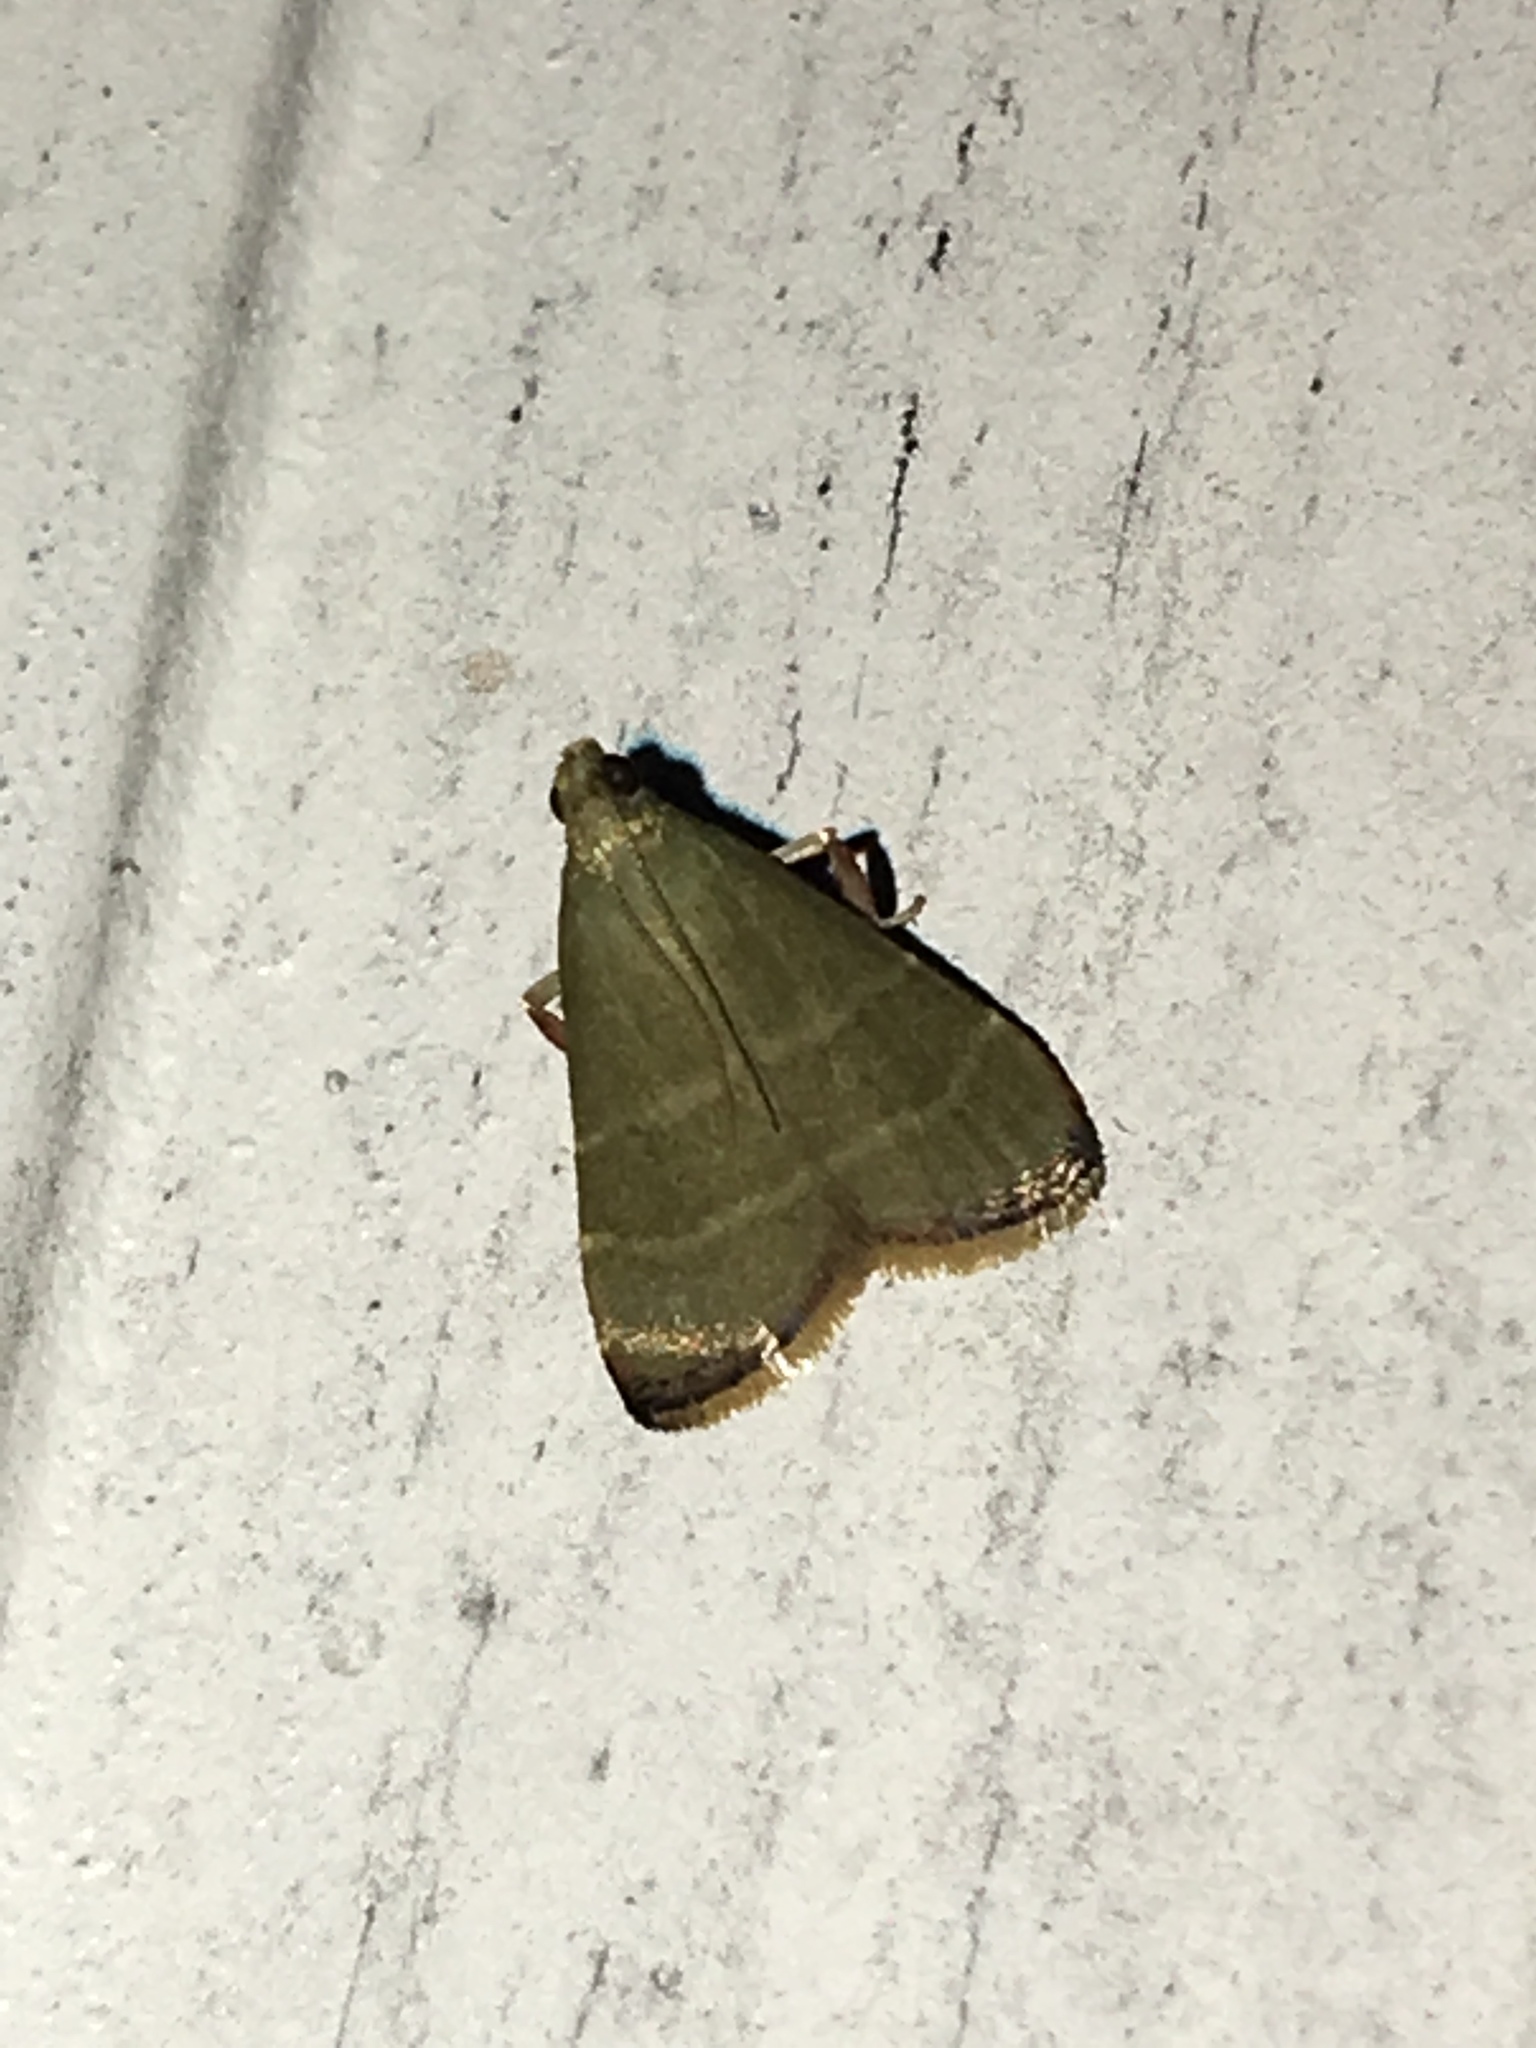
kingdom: Animalia
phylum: Arthropoda
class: Insecta
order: Lepidoptera
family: Pyralidae
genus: Arta
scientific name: Arta olivalis
